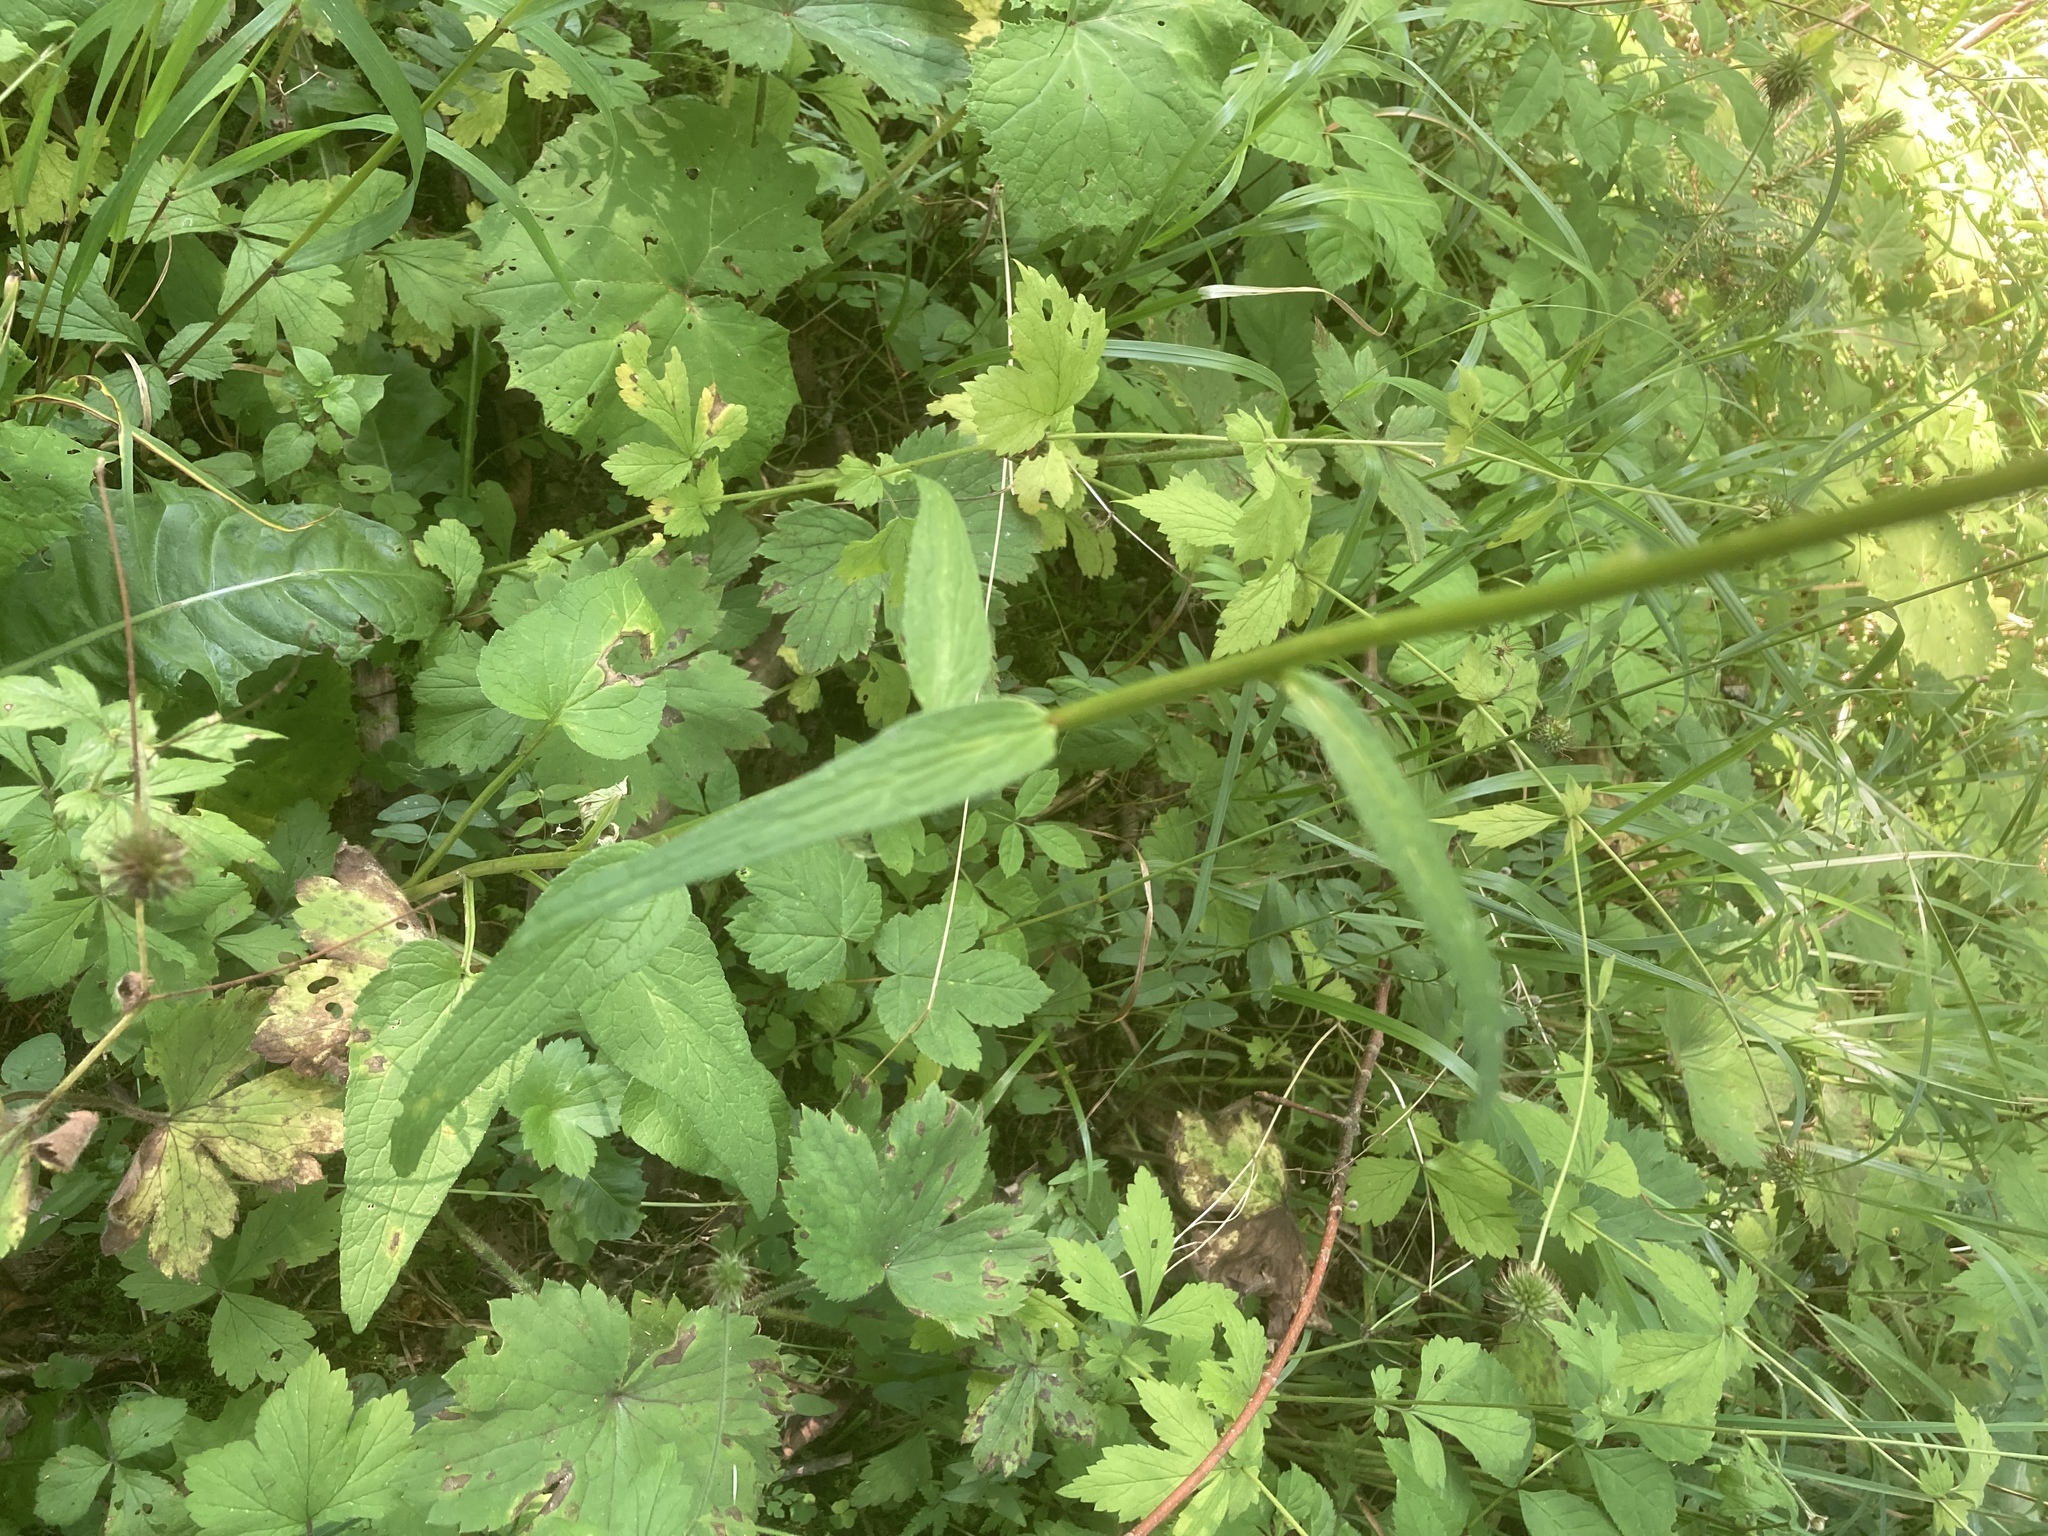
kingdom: Plantae
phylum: Tracheophyta
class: Magnoliopsida
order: Asterales
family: Campanulaceae
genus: Phyteuma
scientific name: Phyteuma
